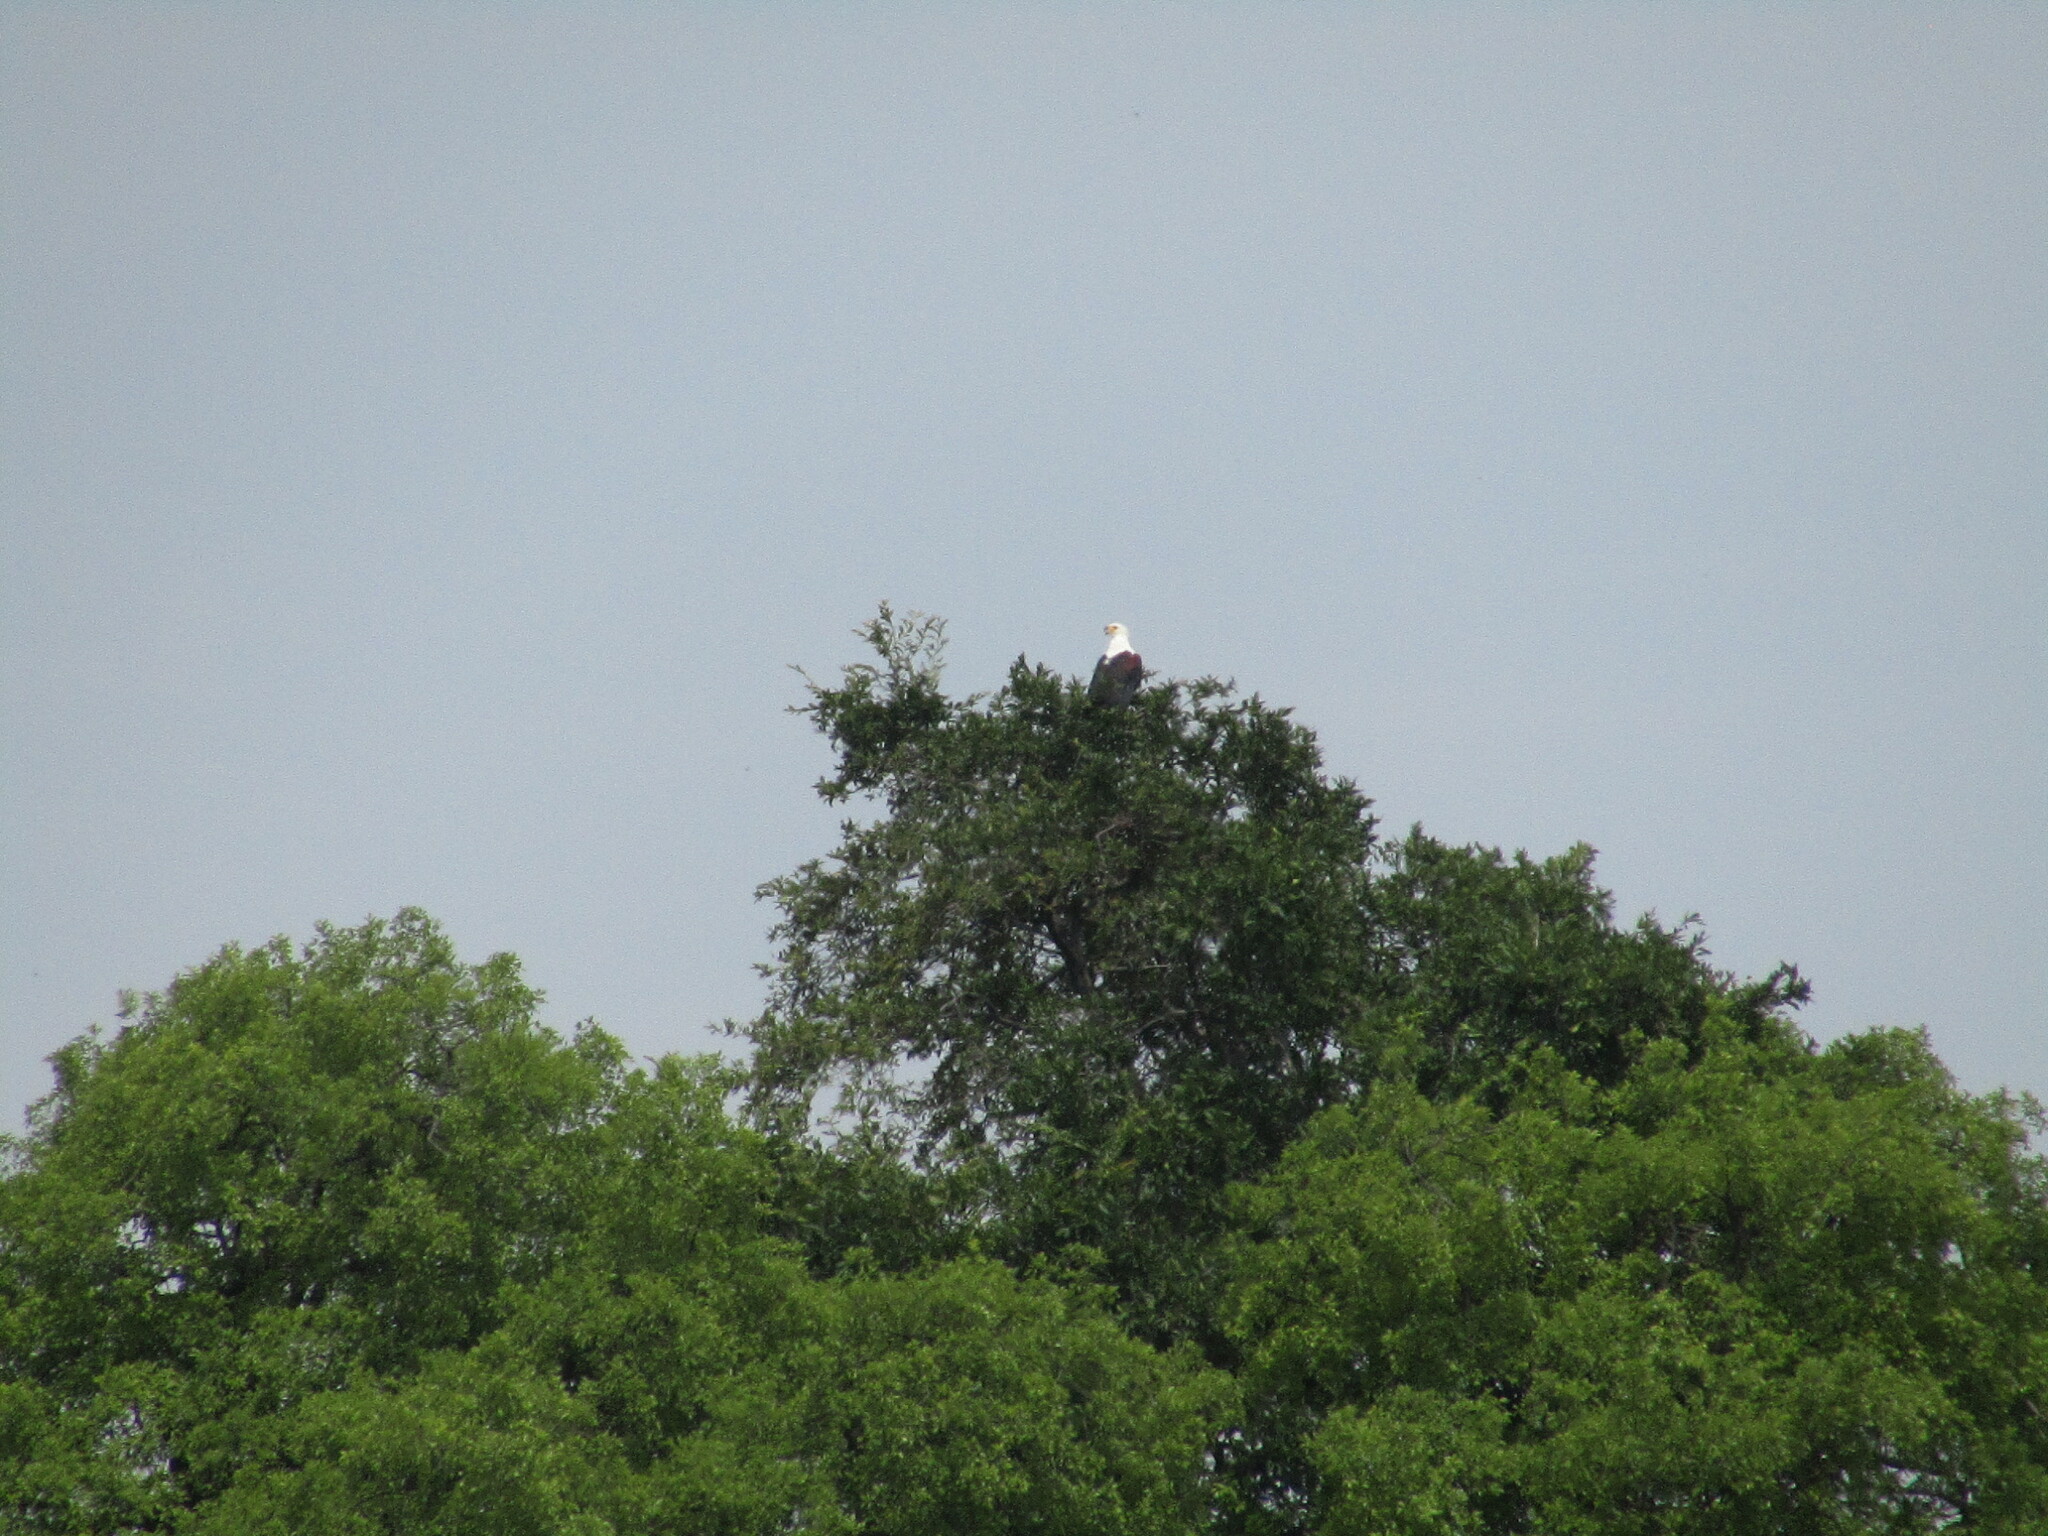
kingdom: Animalia
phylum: Chordata
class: Aves
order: Accipitriformes
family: Accipitridae
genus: Haliaeetus
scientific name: Haliaeetus vocifer
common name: African fish eagle
